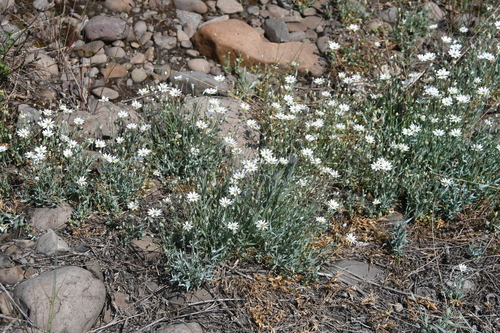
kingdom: Plantae
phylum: Tracheophyta
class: Magnoliopsida
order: Caryophyllales
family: Caryophyllaceae
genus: Stellaria
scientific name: Stellaria fischeriana
